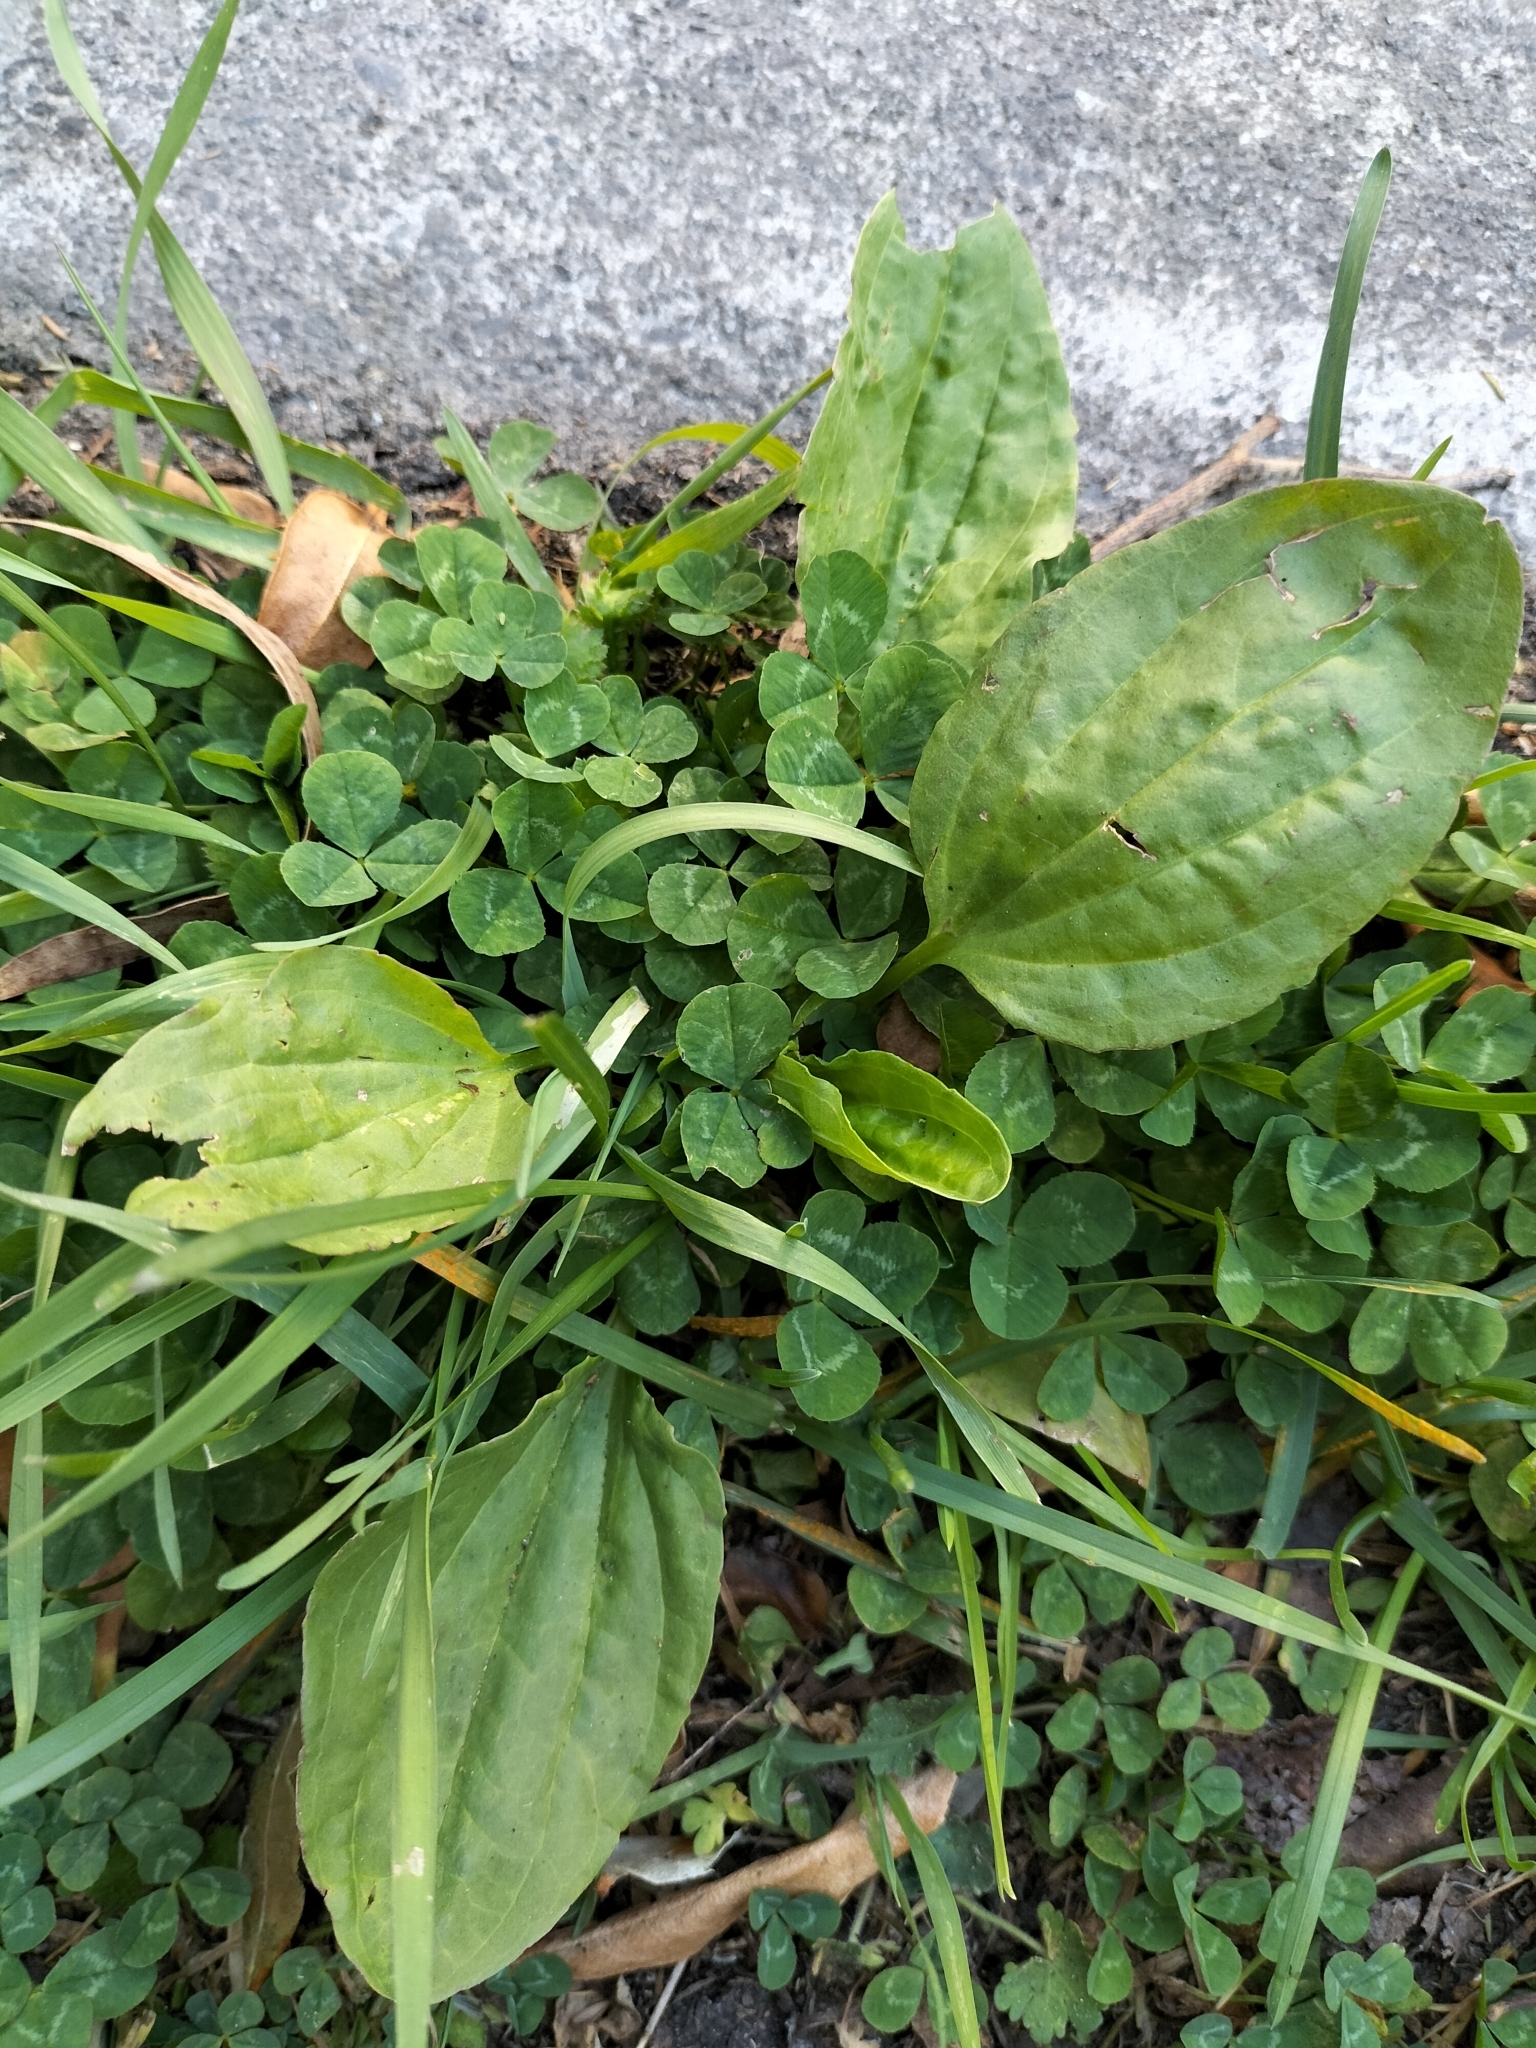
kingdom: Plantae
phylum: Tracheophyta
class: Magnoliopsida
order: Lamiales
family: Plantaginaceae
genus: Plantago
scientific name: Plantago major
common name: Common plantain
